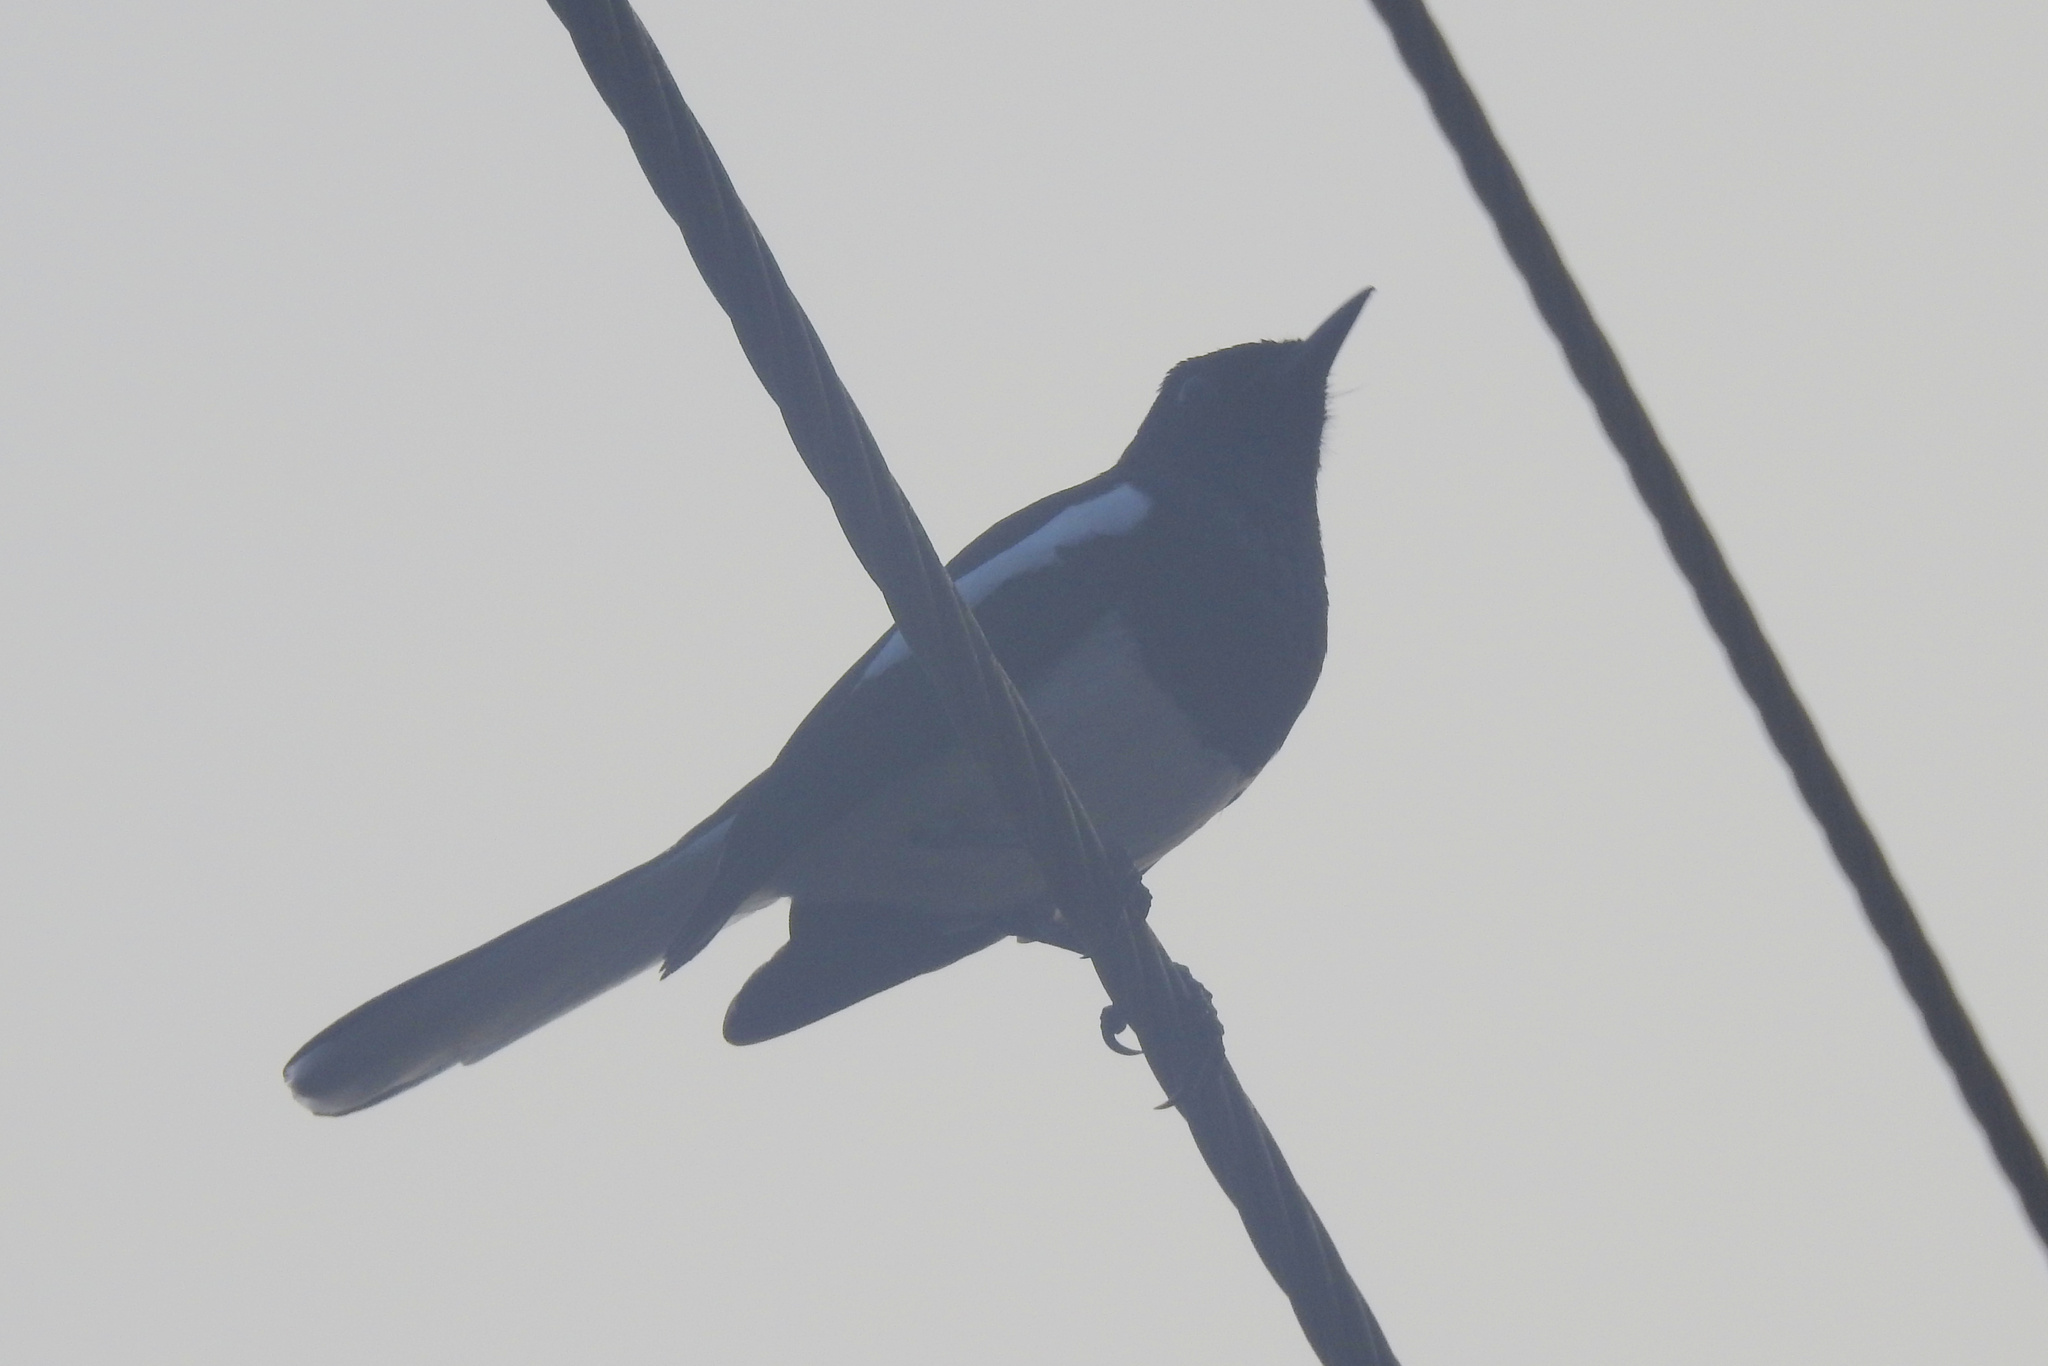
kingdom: Animalia
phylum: Chordata
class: Aves
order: Passeriformes
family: Muscicapidae
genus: Copsychus
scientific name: Copsychus saularis
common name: Oriental magpie-robin
